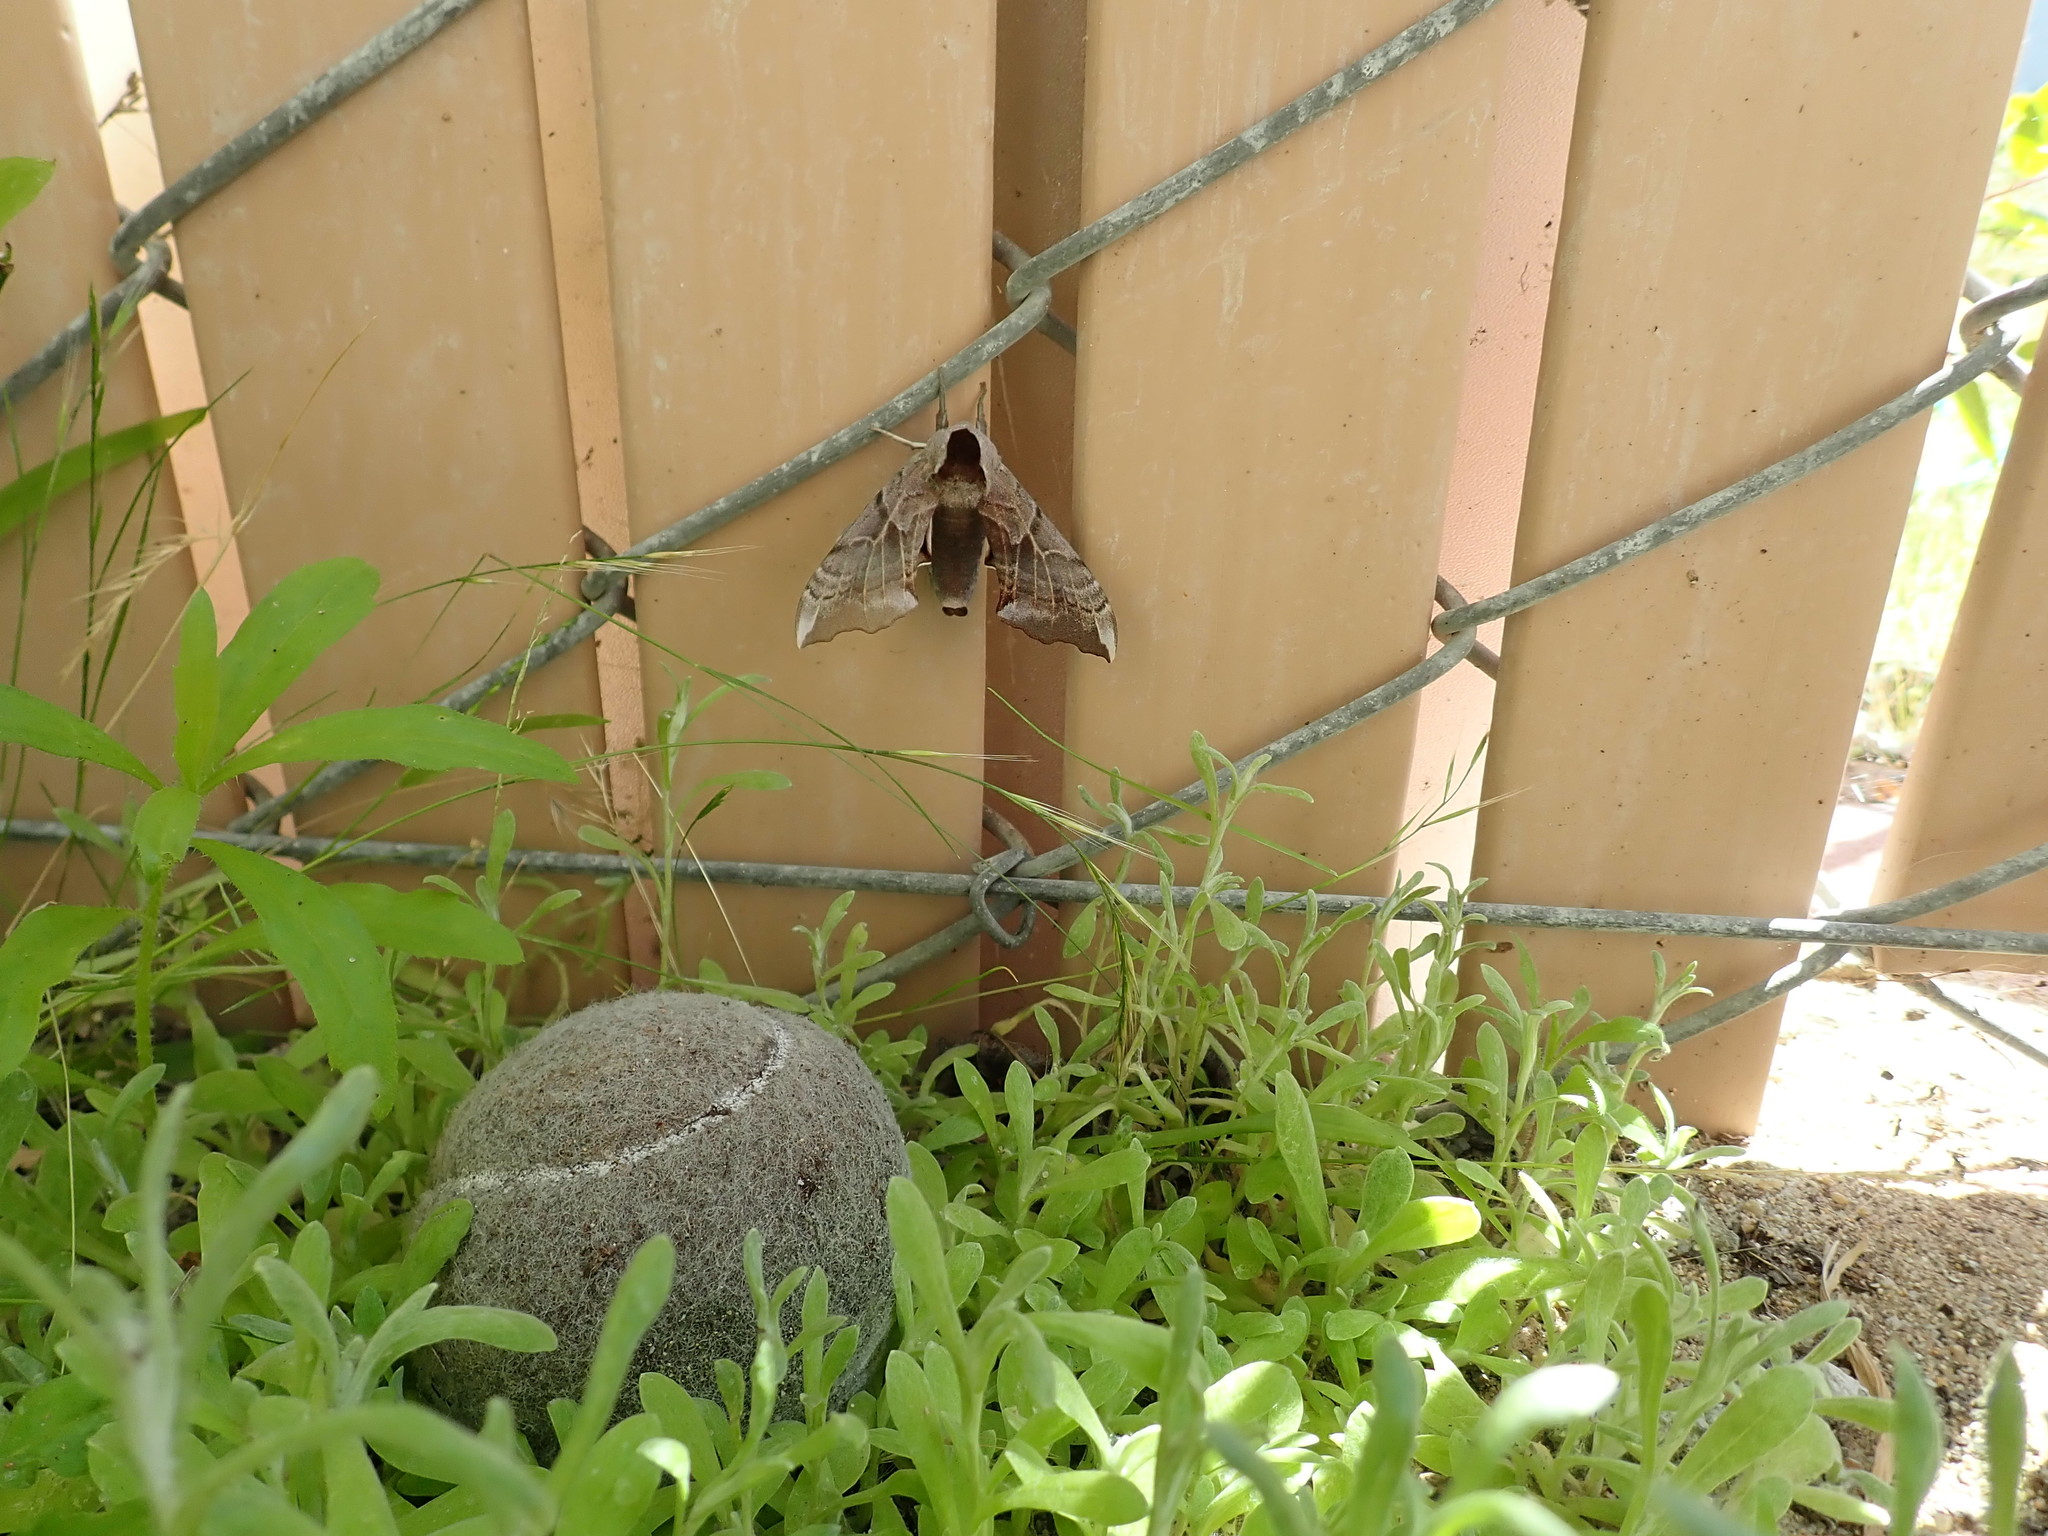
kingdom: Animalia
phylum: Arthropoda
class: Insecta
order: Lepidoptera
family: Sphingidae
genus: Smerinthus
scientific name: Smerinthus cerisyi
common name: Cerisy's sphinx moth
